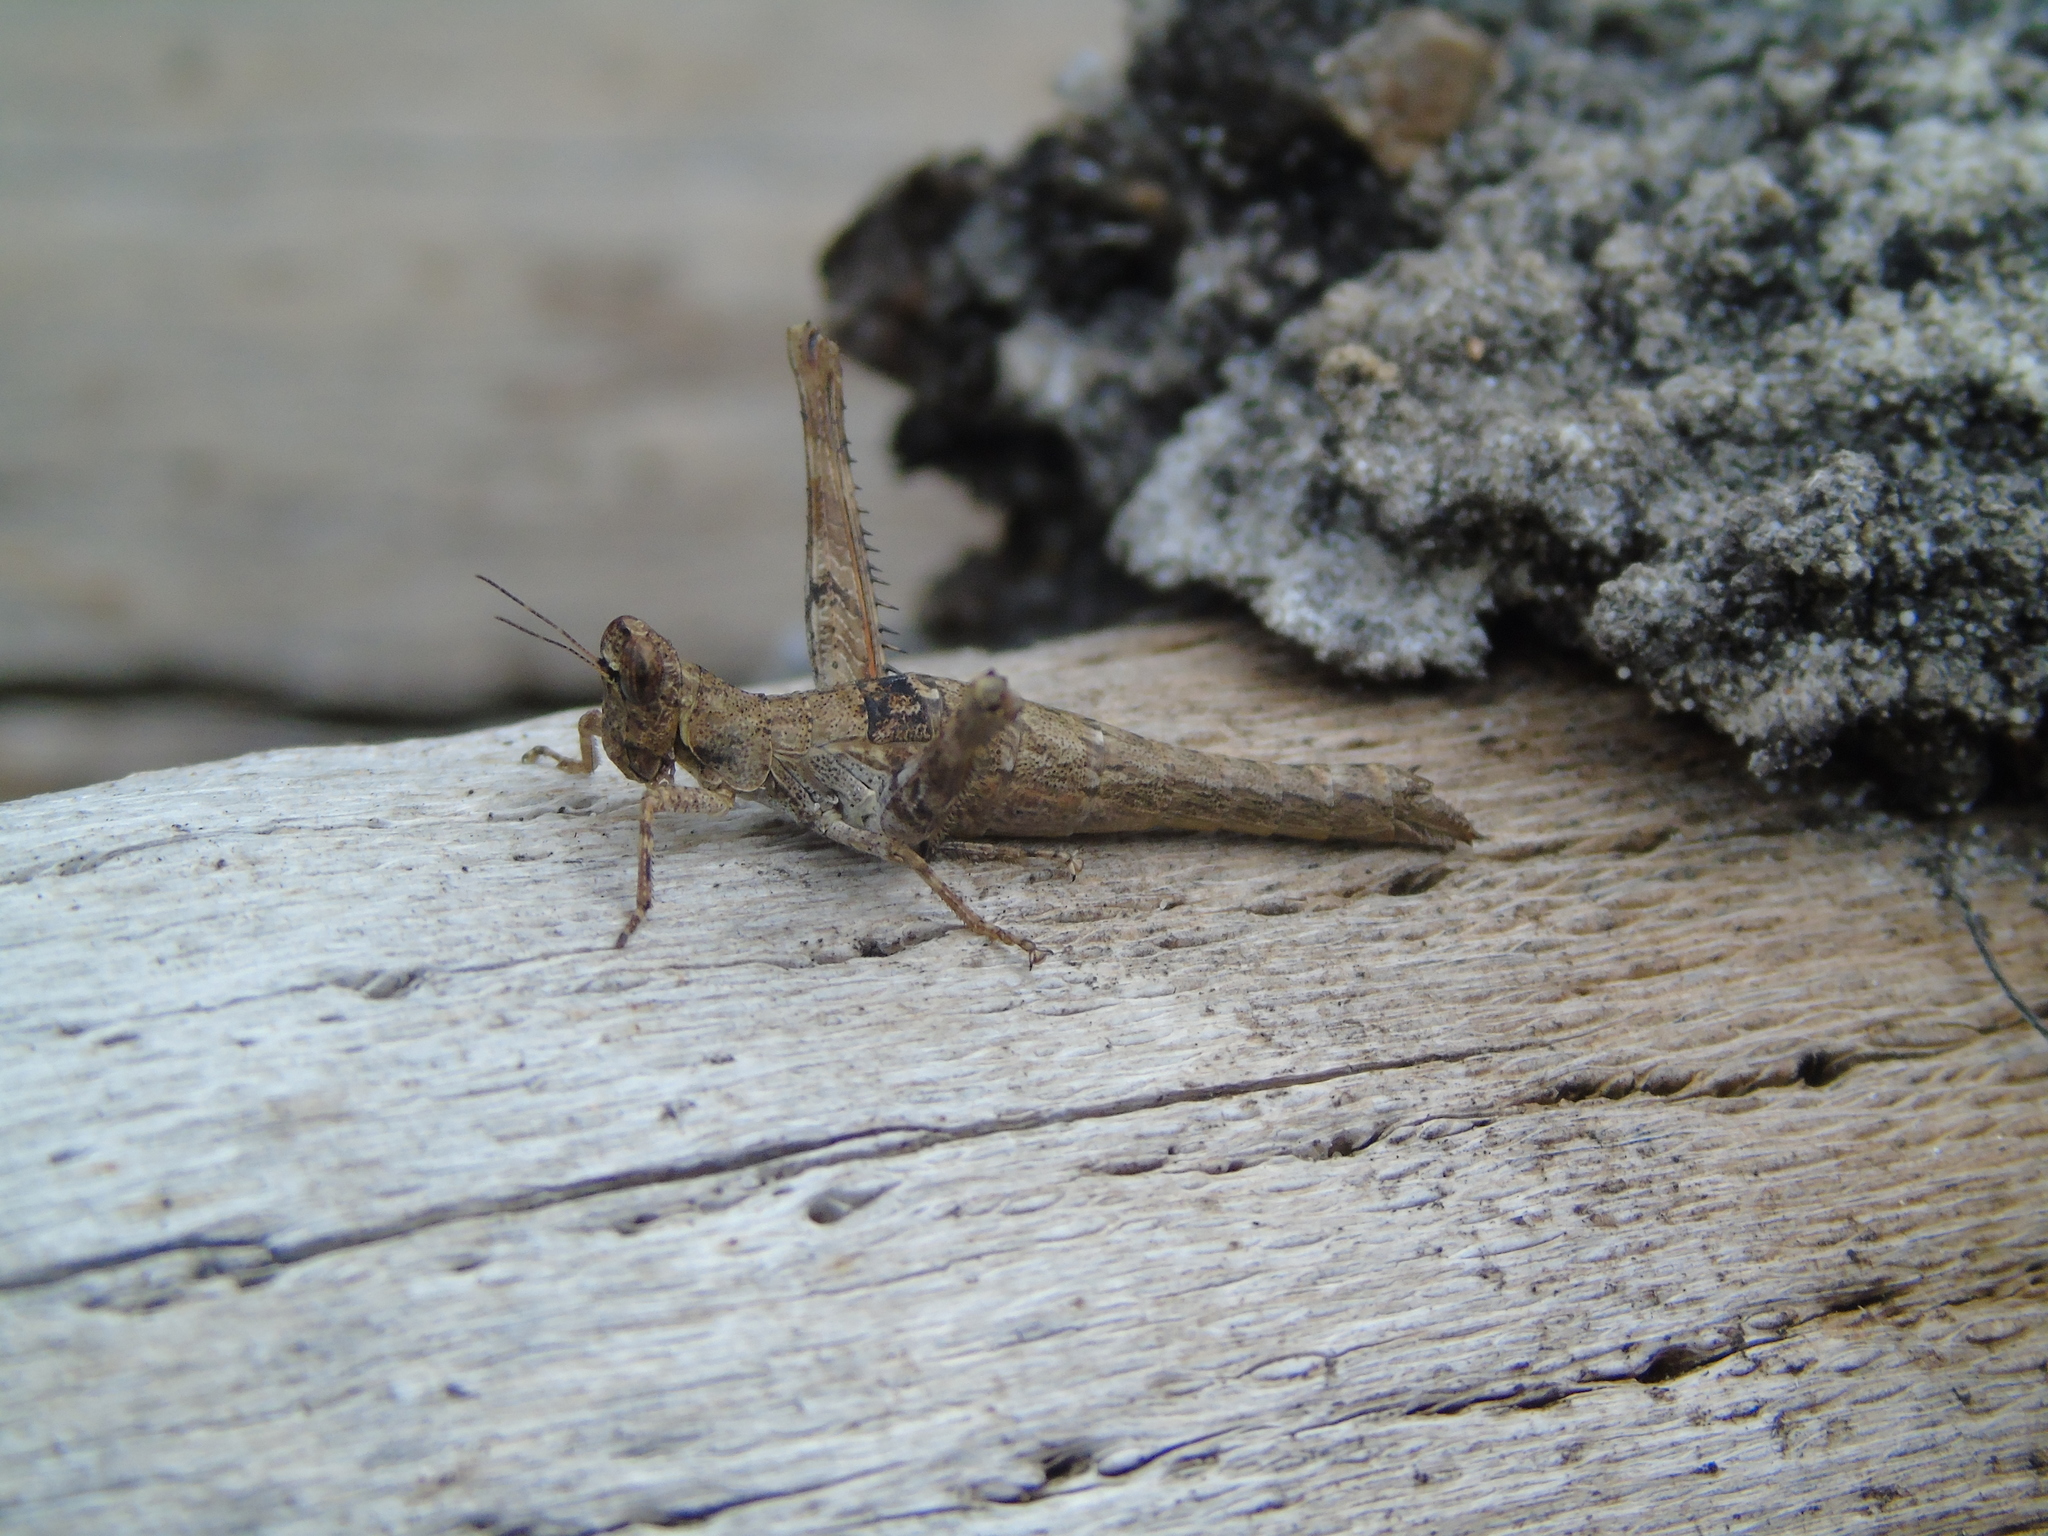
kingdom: Animalia
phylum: Arthropoda
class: Insecta
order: Orthoptera
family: Episactidae
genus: Teicophrys
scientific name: Teicophrys fusiformis
